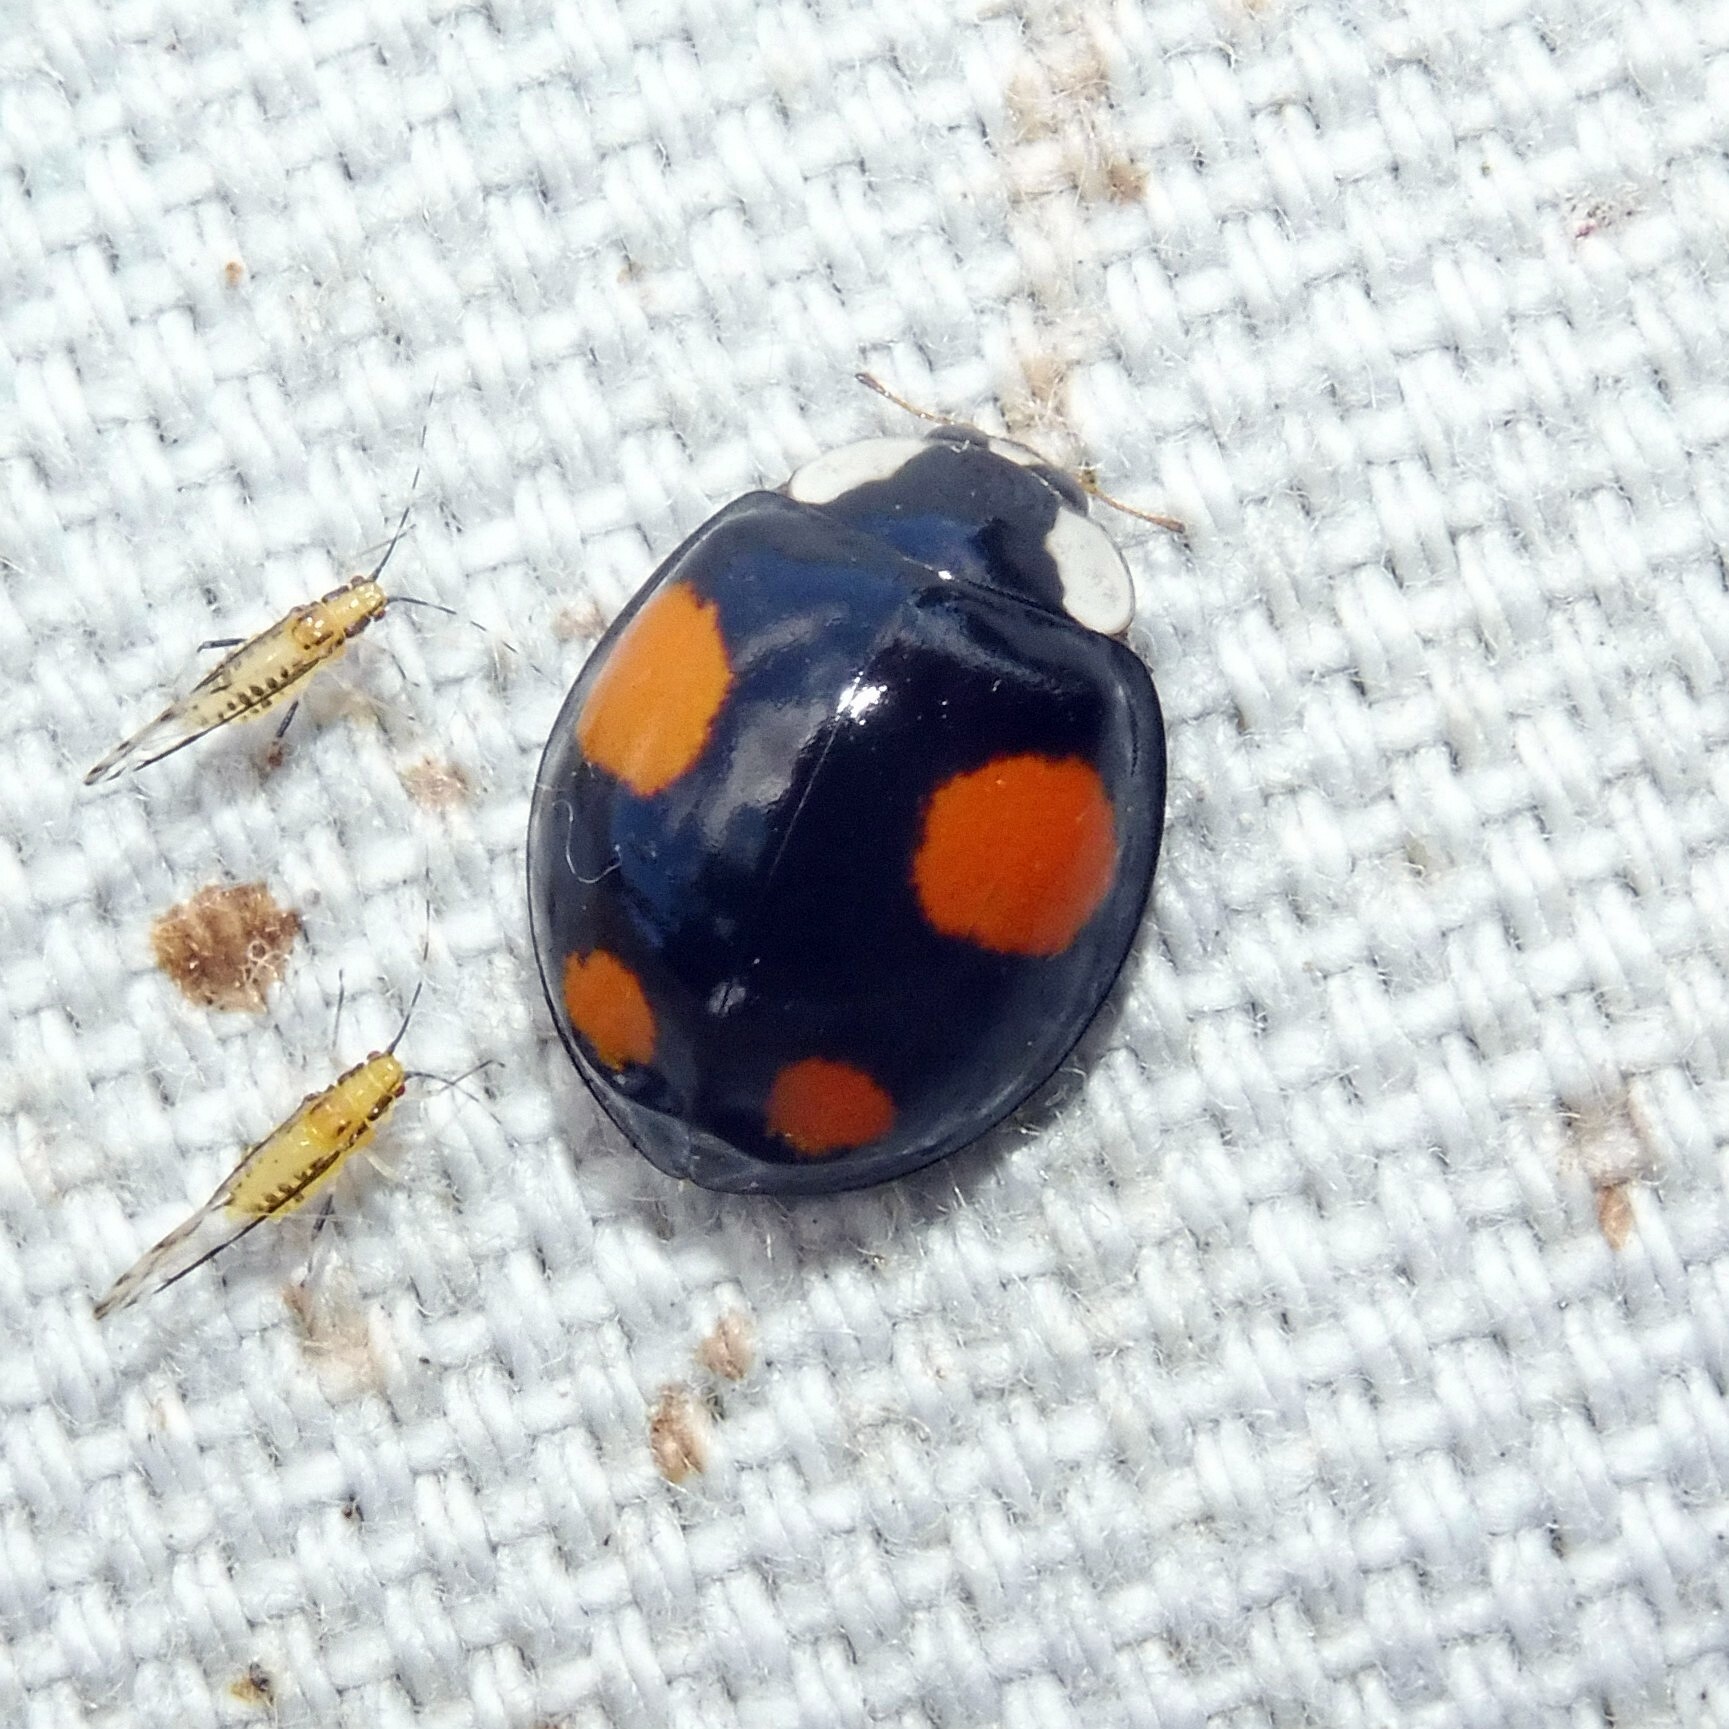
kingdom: Animalia
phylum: Arthropoda
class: Insecta
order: Coleoptera
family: Coccinellidae
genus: Harmonia
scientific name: Harmonia axyridis
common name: Harlequin ladybird
